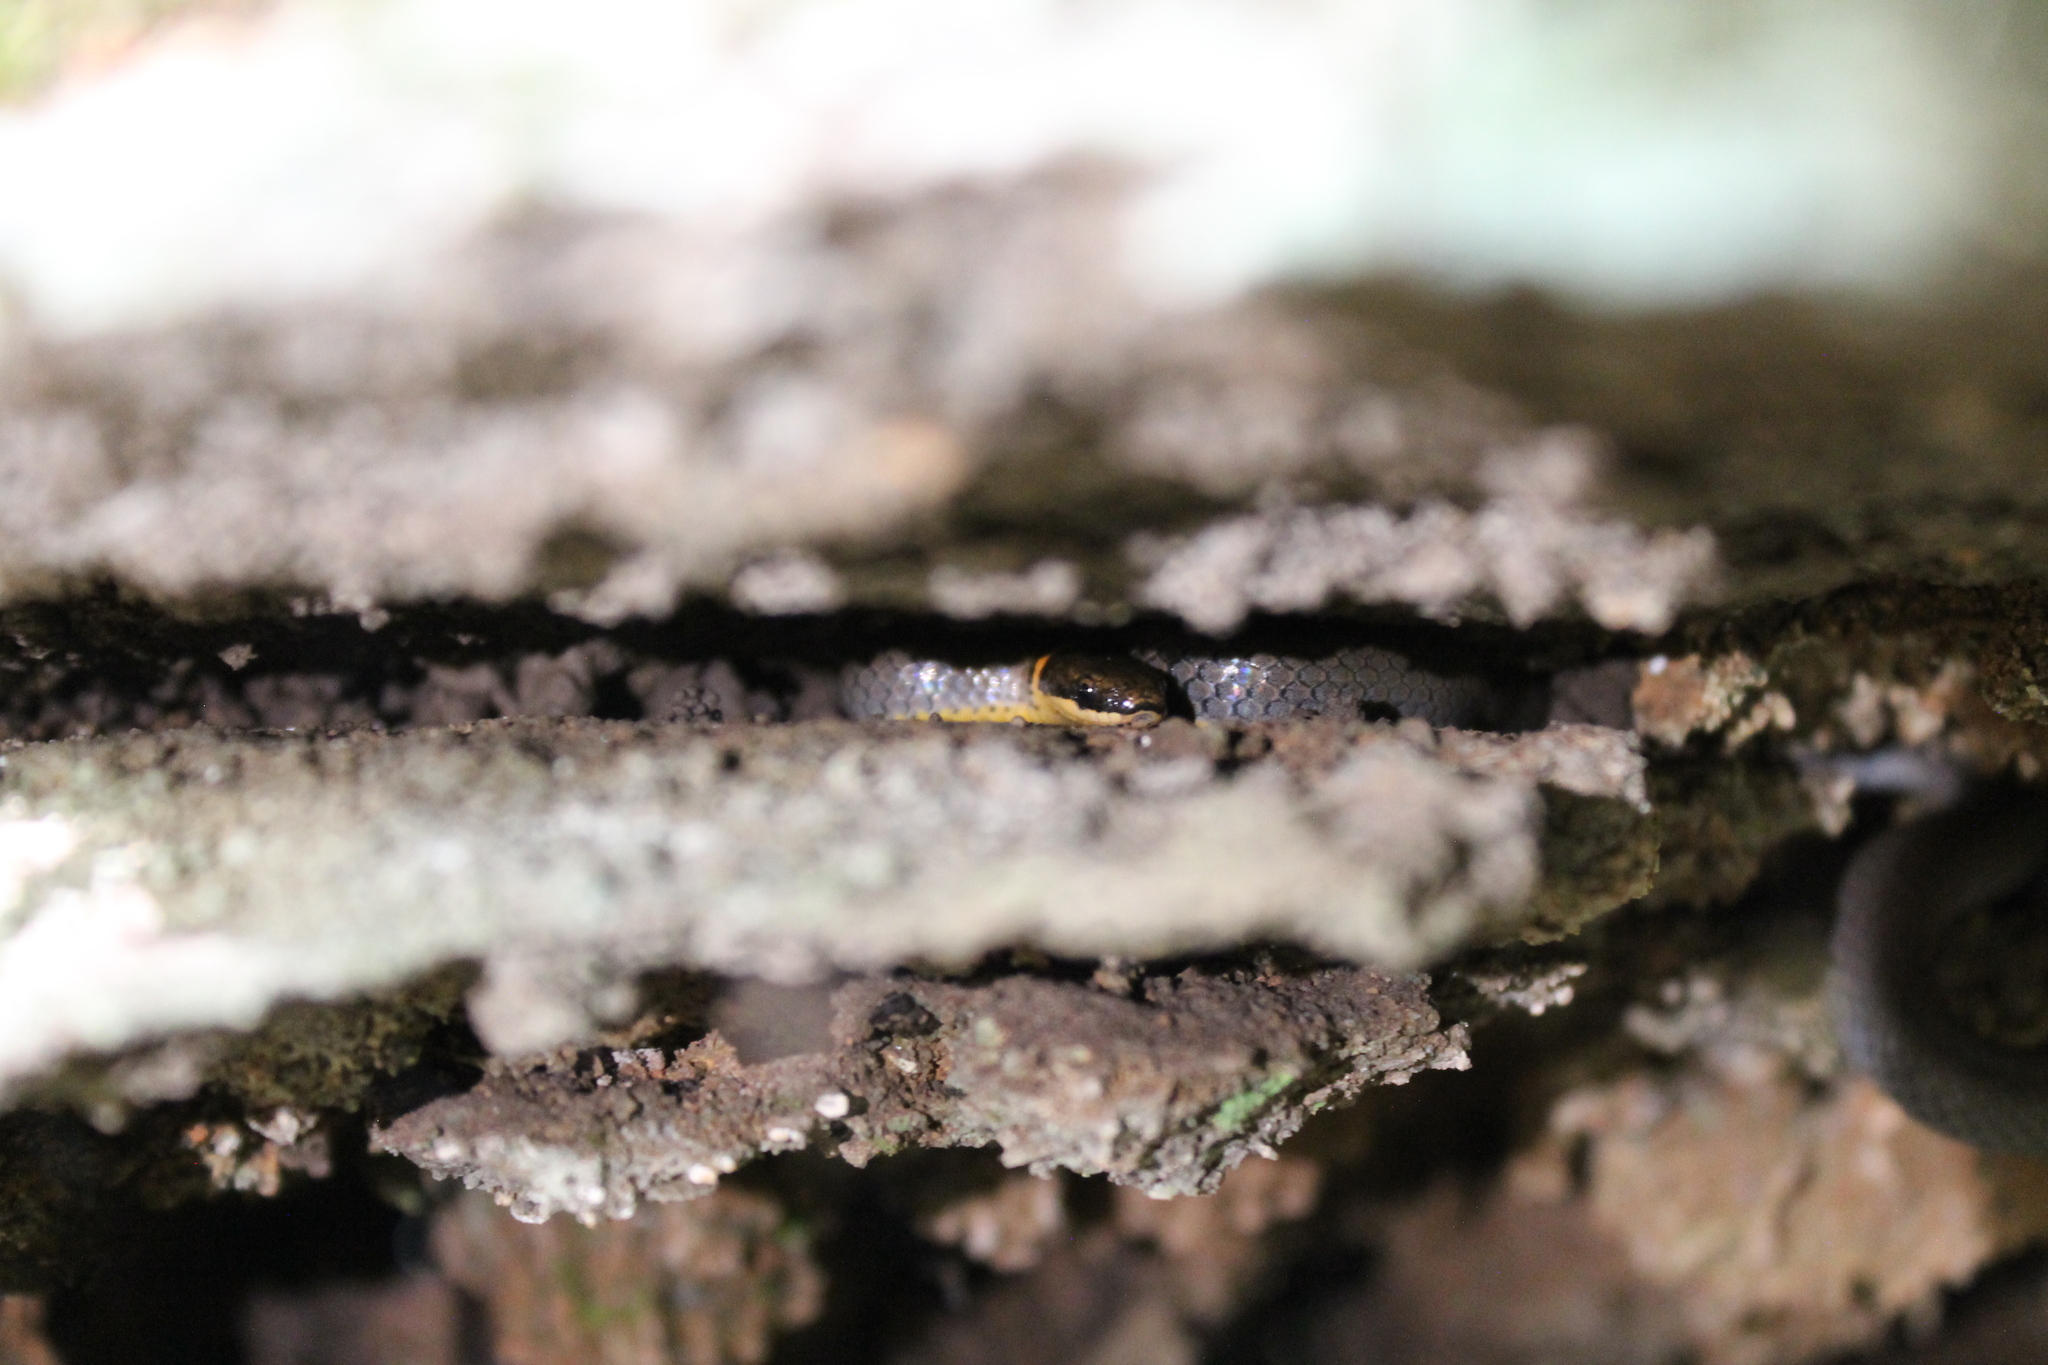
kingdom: Animalia
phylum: Chordata
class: Squamata
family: Colubridae
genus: Diadophis
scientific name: Diadophis punctatus
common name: Ringneck snake
